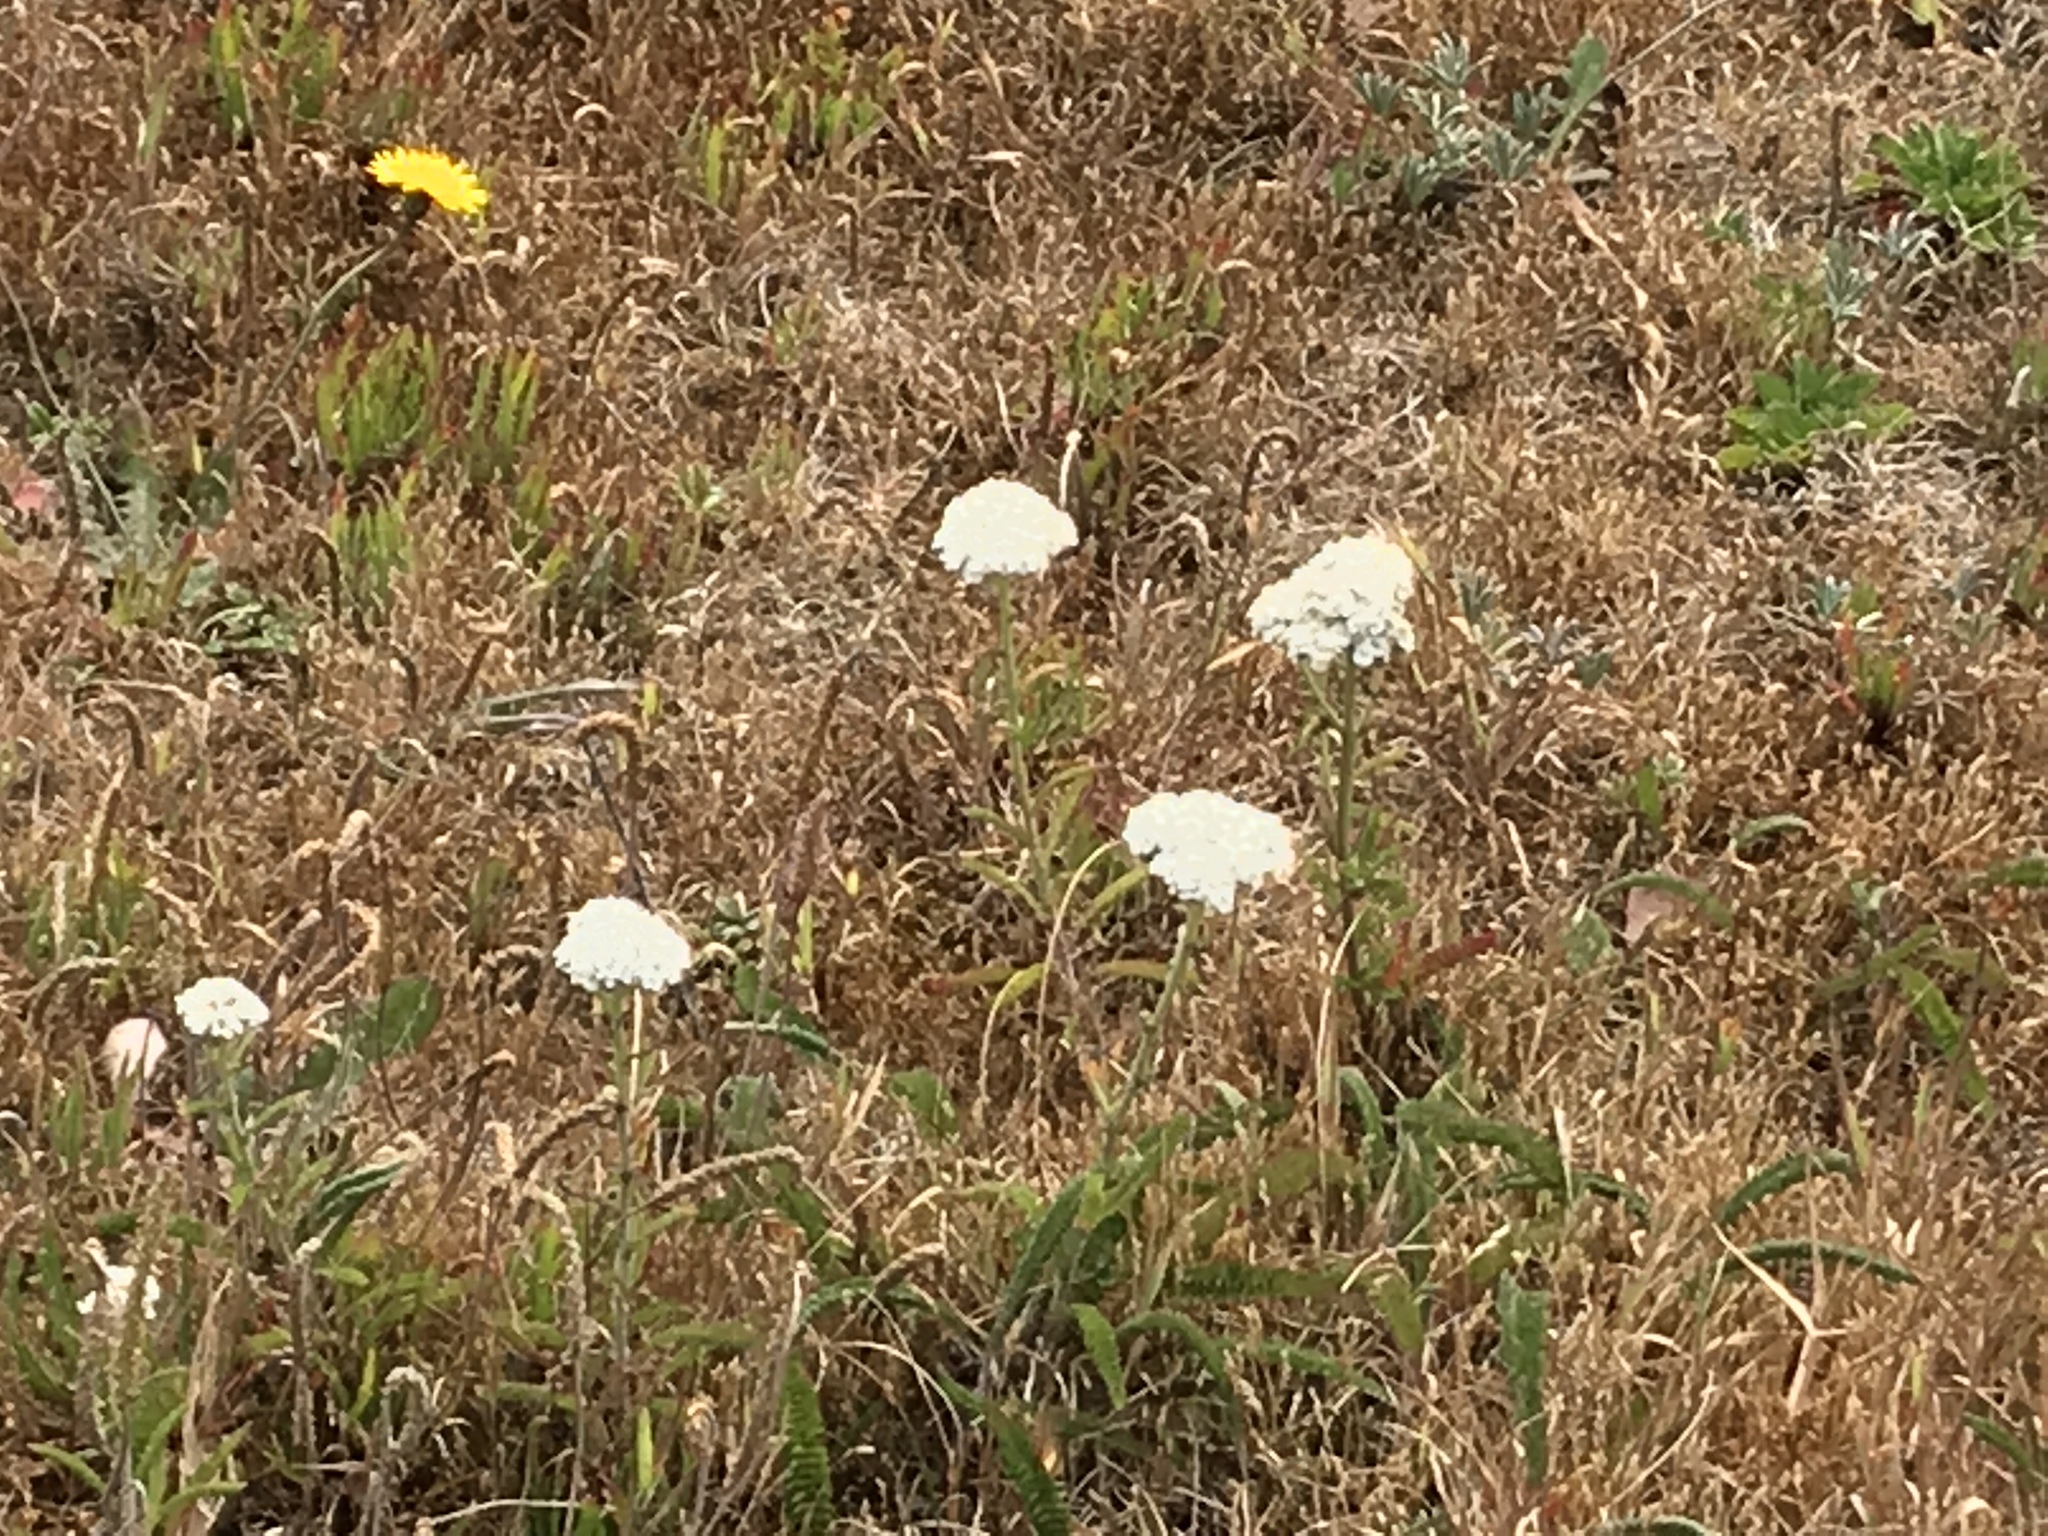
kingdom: Plantae
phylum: Tracheophyta
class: Magnoliopsida
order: Asterales
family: Asteraceae
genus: Achillea
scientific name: Achillea millefolium
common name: Yarrow
